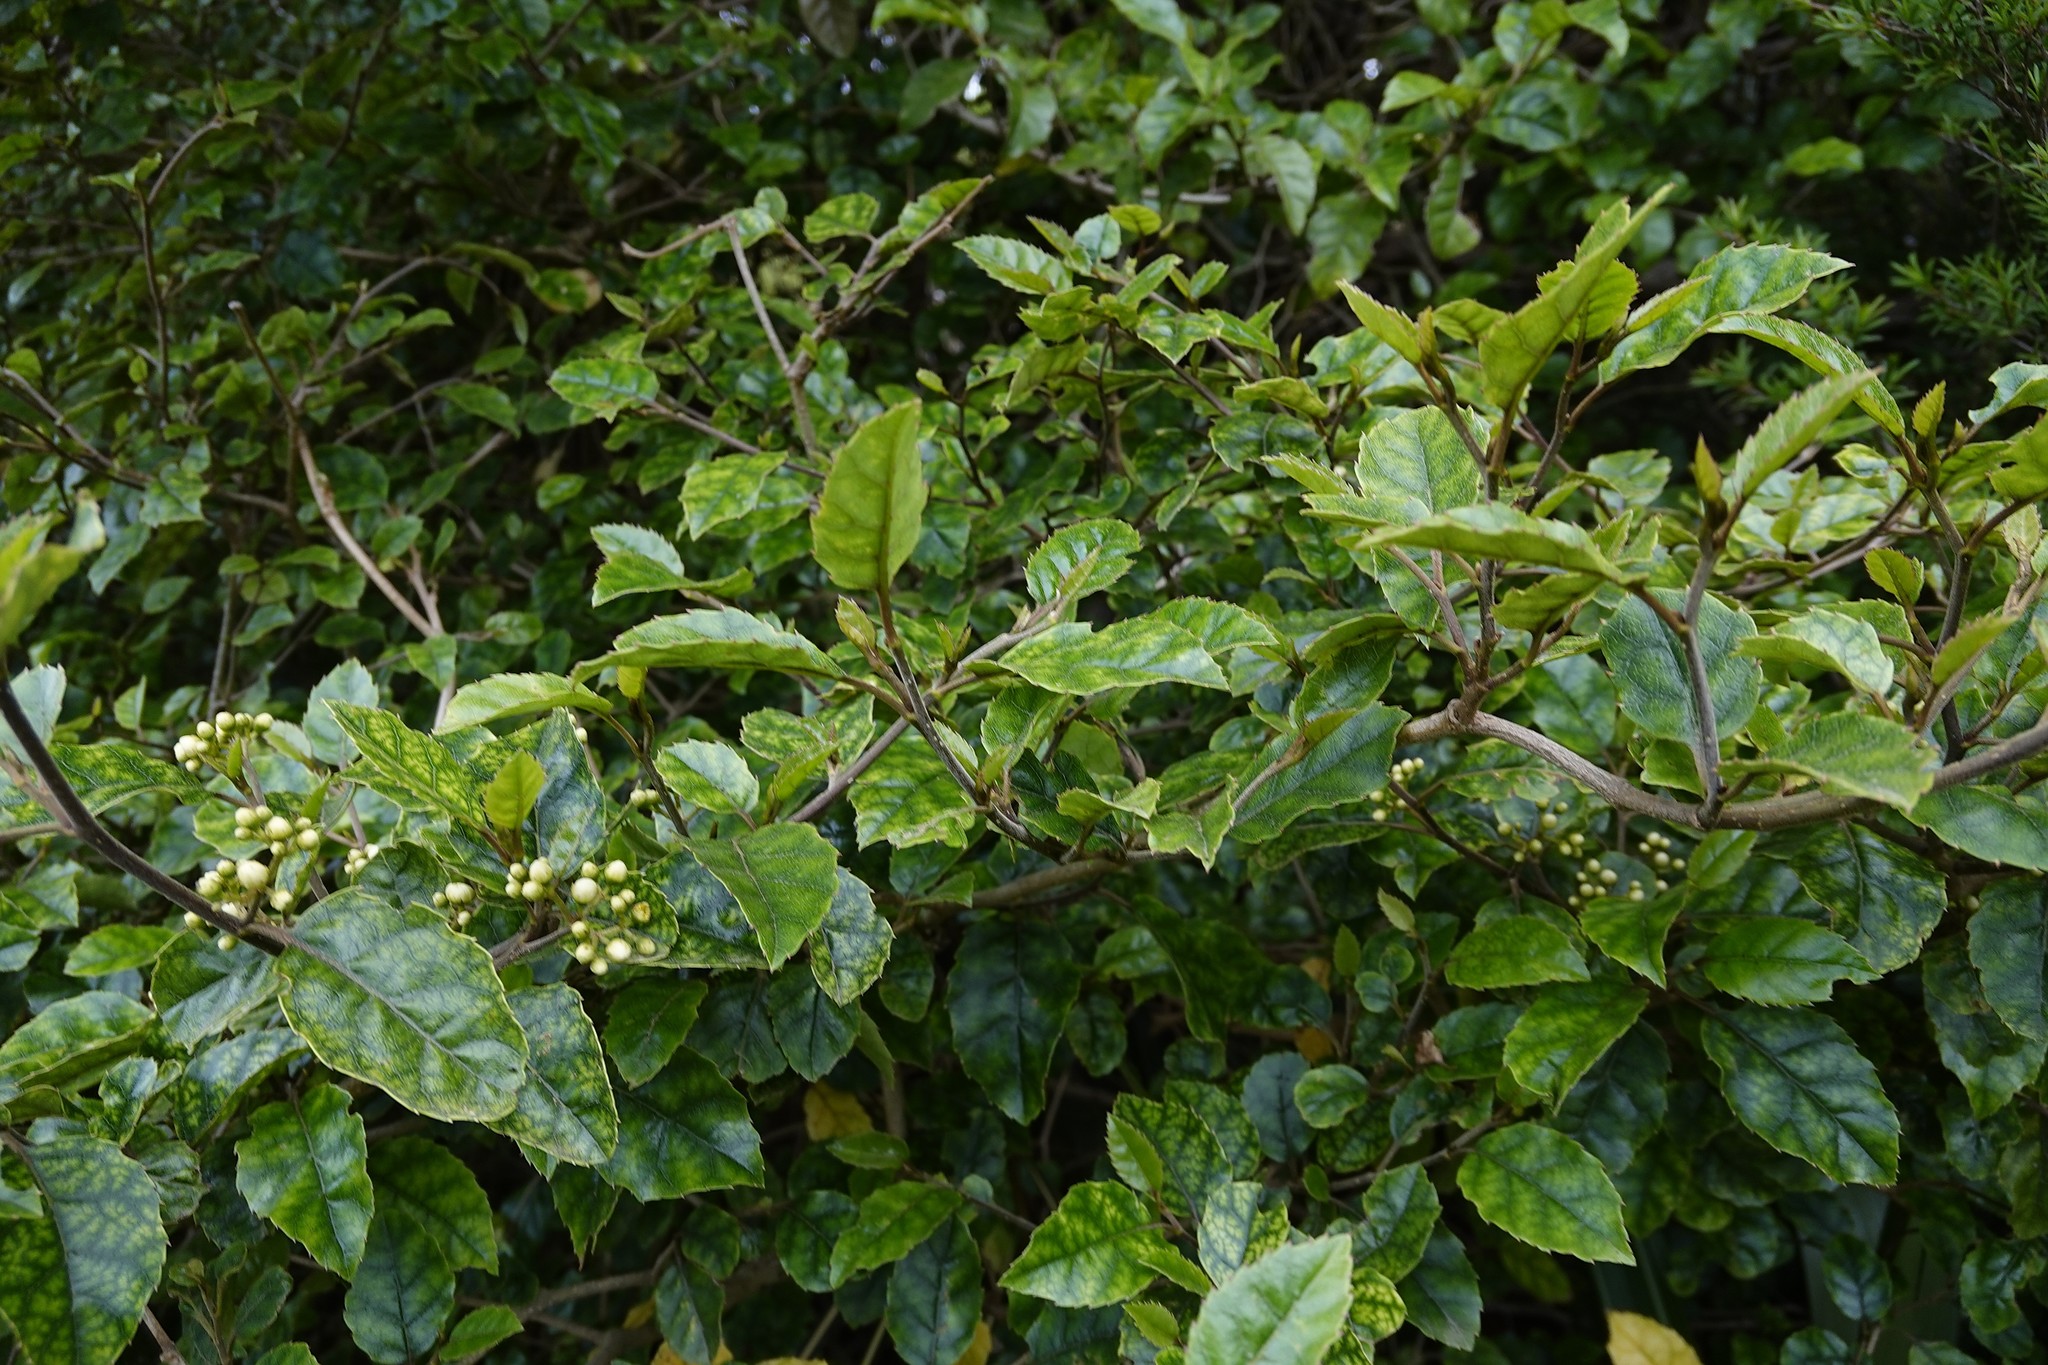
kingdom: Plantae
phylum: Tracheophyta
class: Magnoliopsida
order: Asterales
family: Rousseaceae
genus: Carpodetus
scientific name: Carpodetus serratus
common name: White mapau
